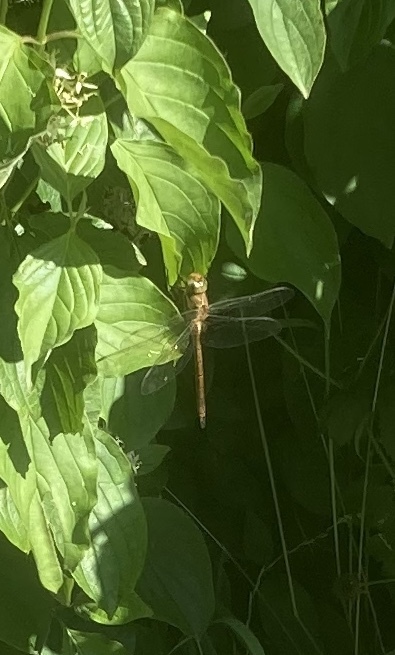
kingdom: Animalia
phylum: Arthropoda
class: Insecta
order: Odonata
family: Aeshnidae
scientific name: Aeshnidae
